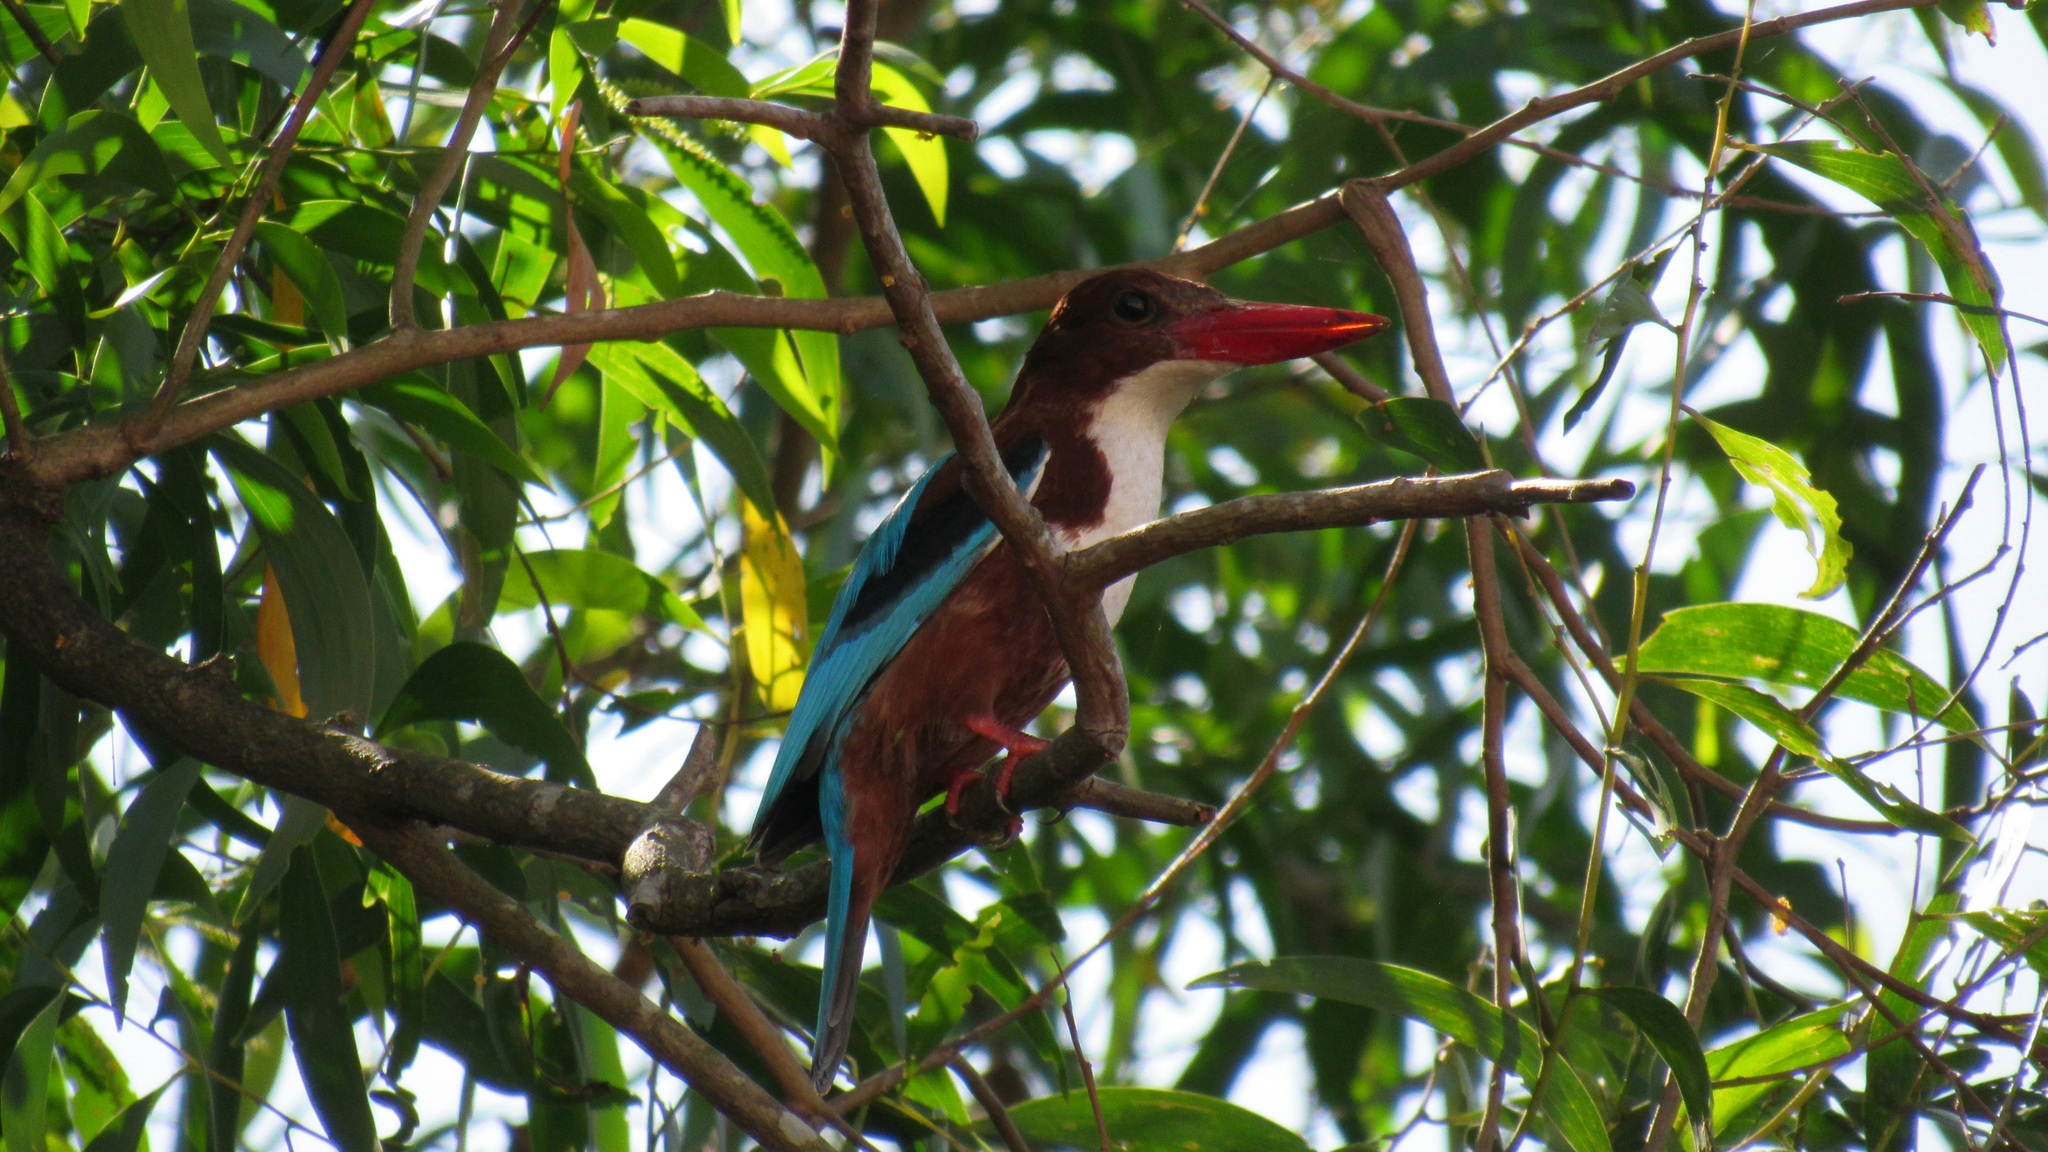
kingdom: Animalia
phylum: Chordata
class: Aves
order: Coraciiformes
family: Alcedinidae
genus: Halcyon
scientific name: Halcyon smyrnensis
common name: White-throated kingfisher
